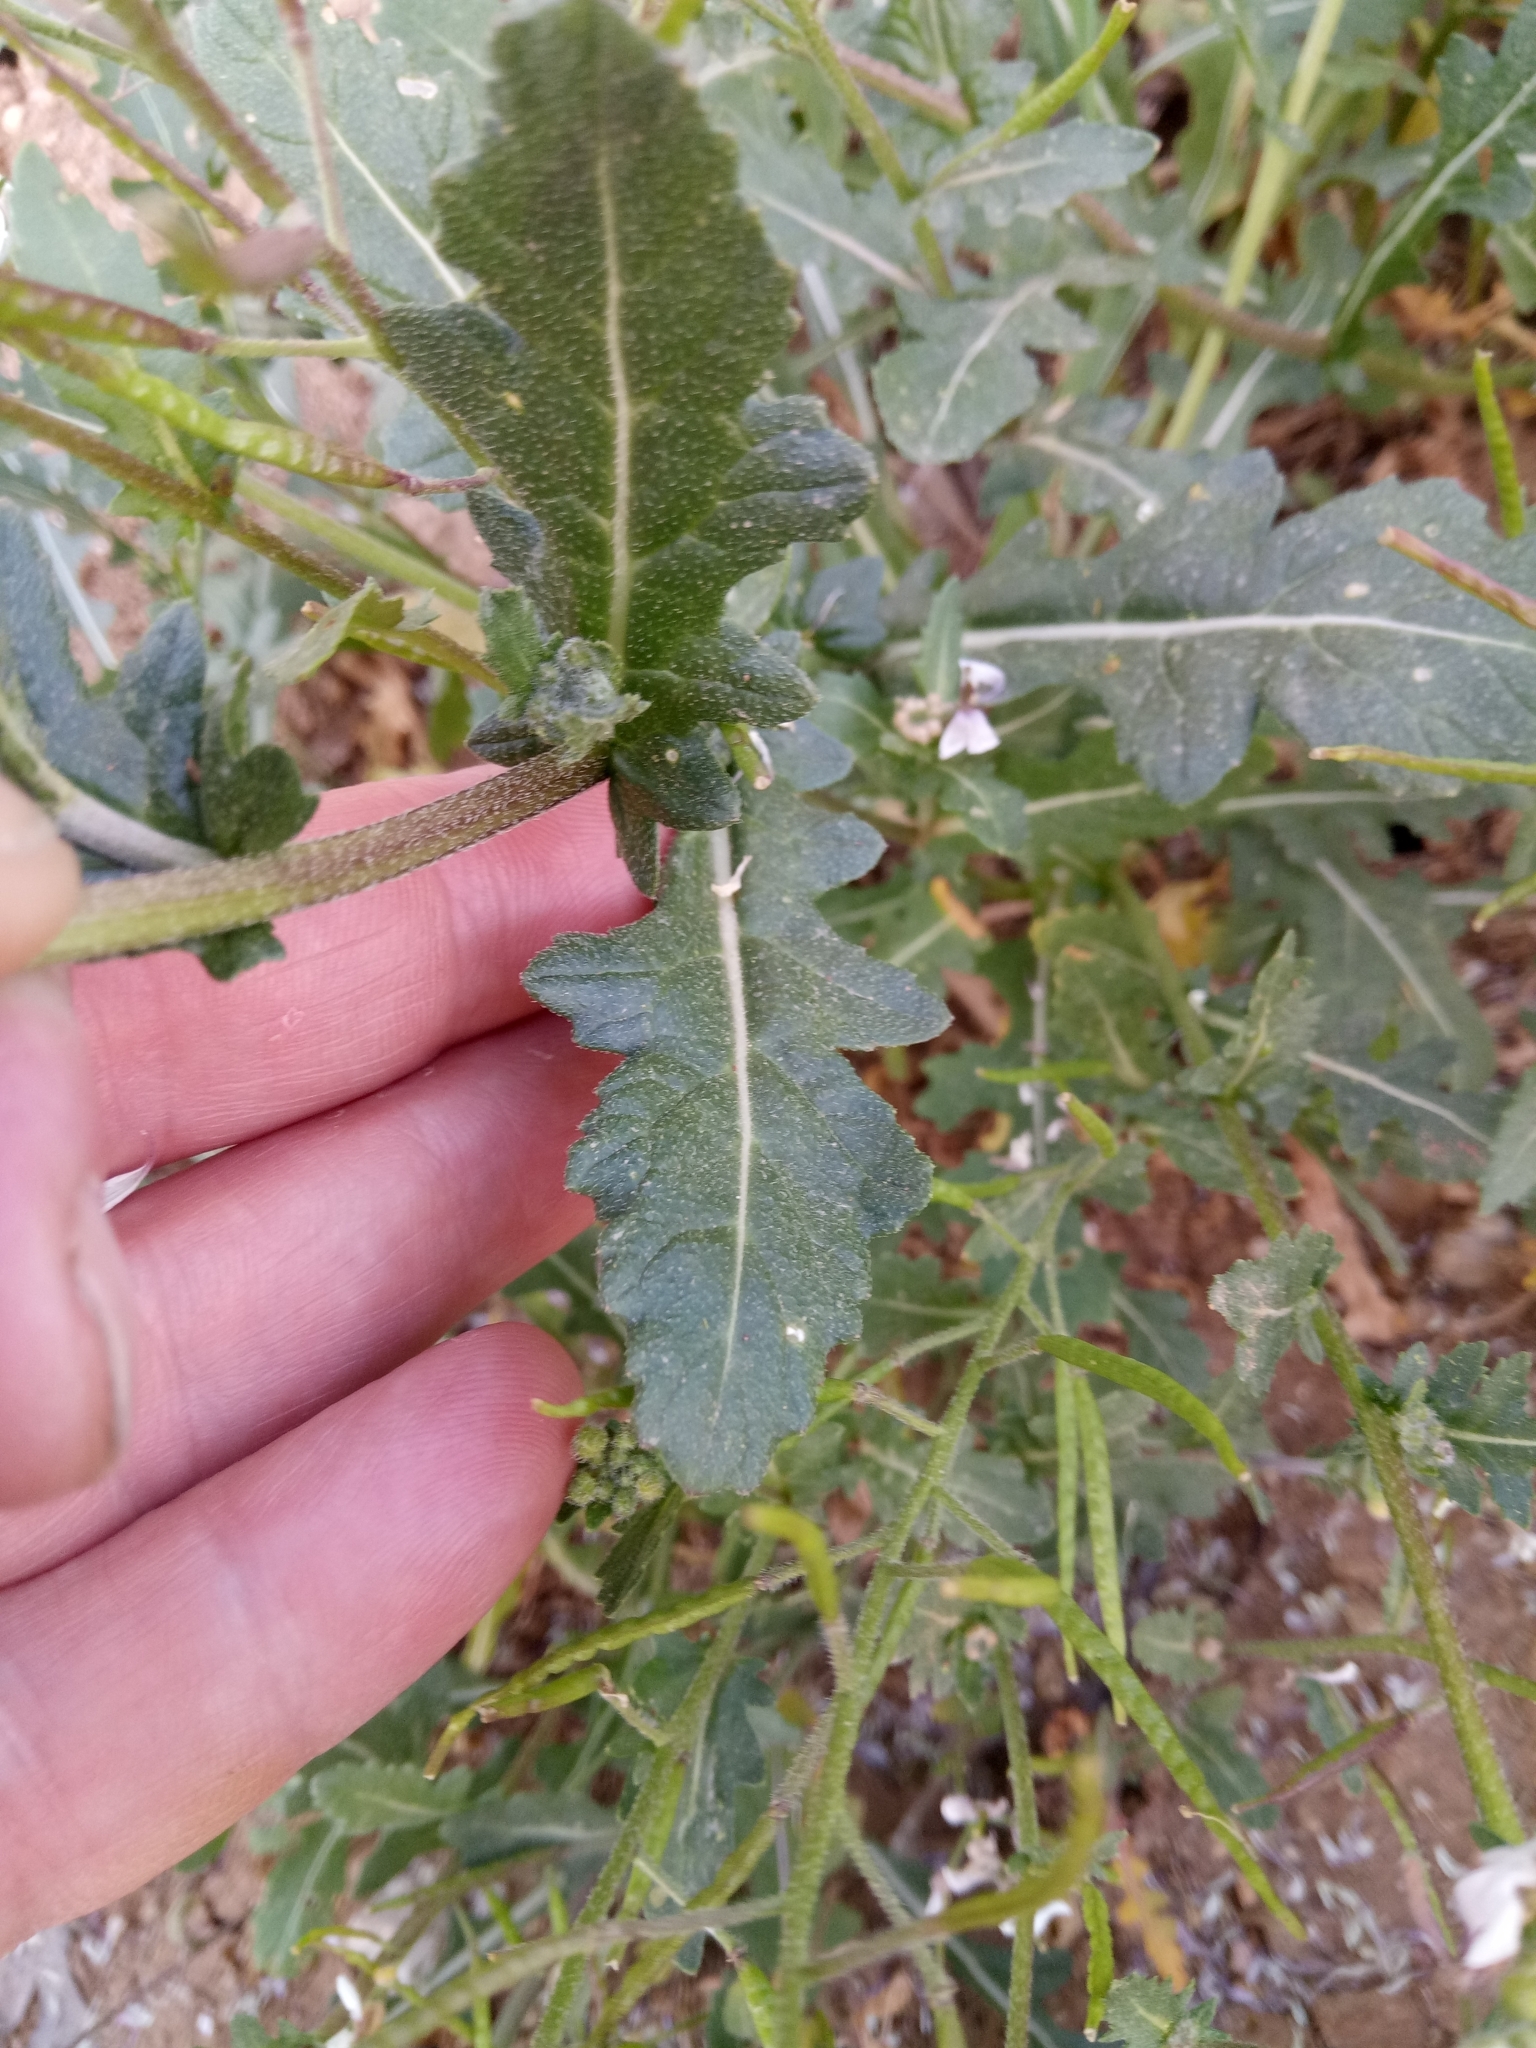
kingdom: Plantae
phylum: Tracheophyta
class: Magnoliopsida
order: Brassicales
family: Brassicaceae
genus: Diplotaxis
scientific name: Diplotaxis erucoides
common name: White rocket
